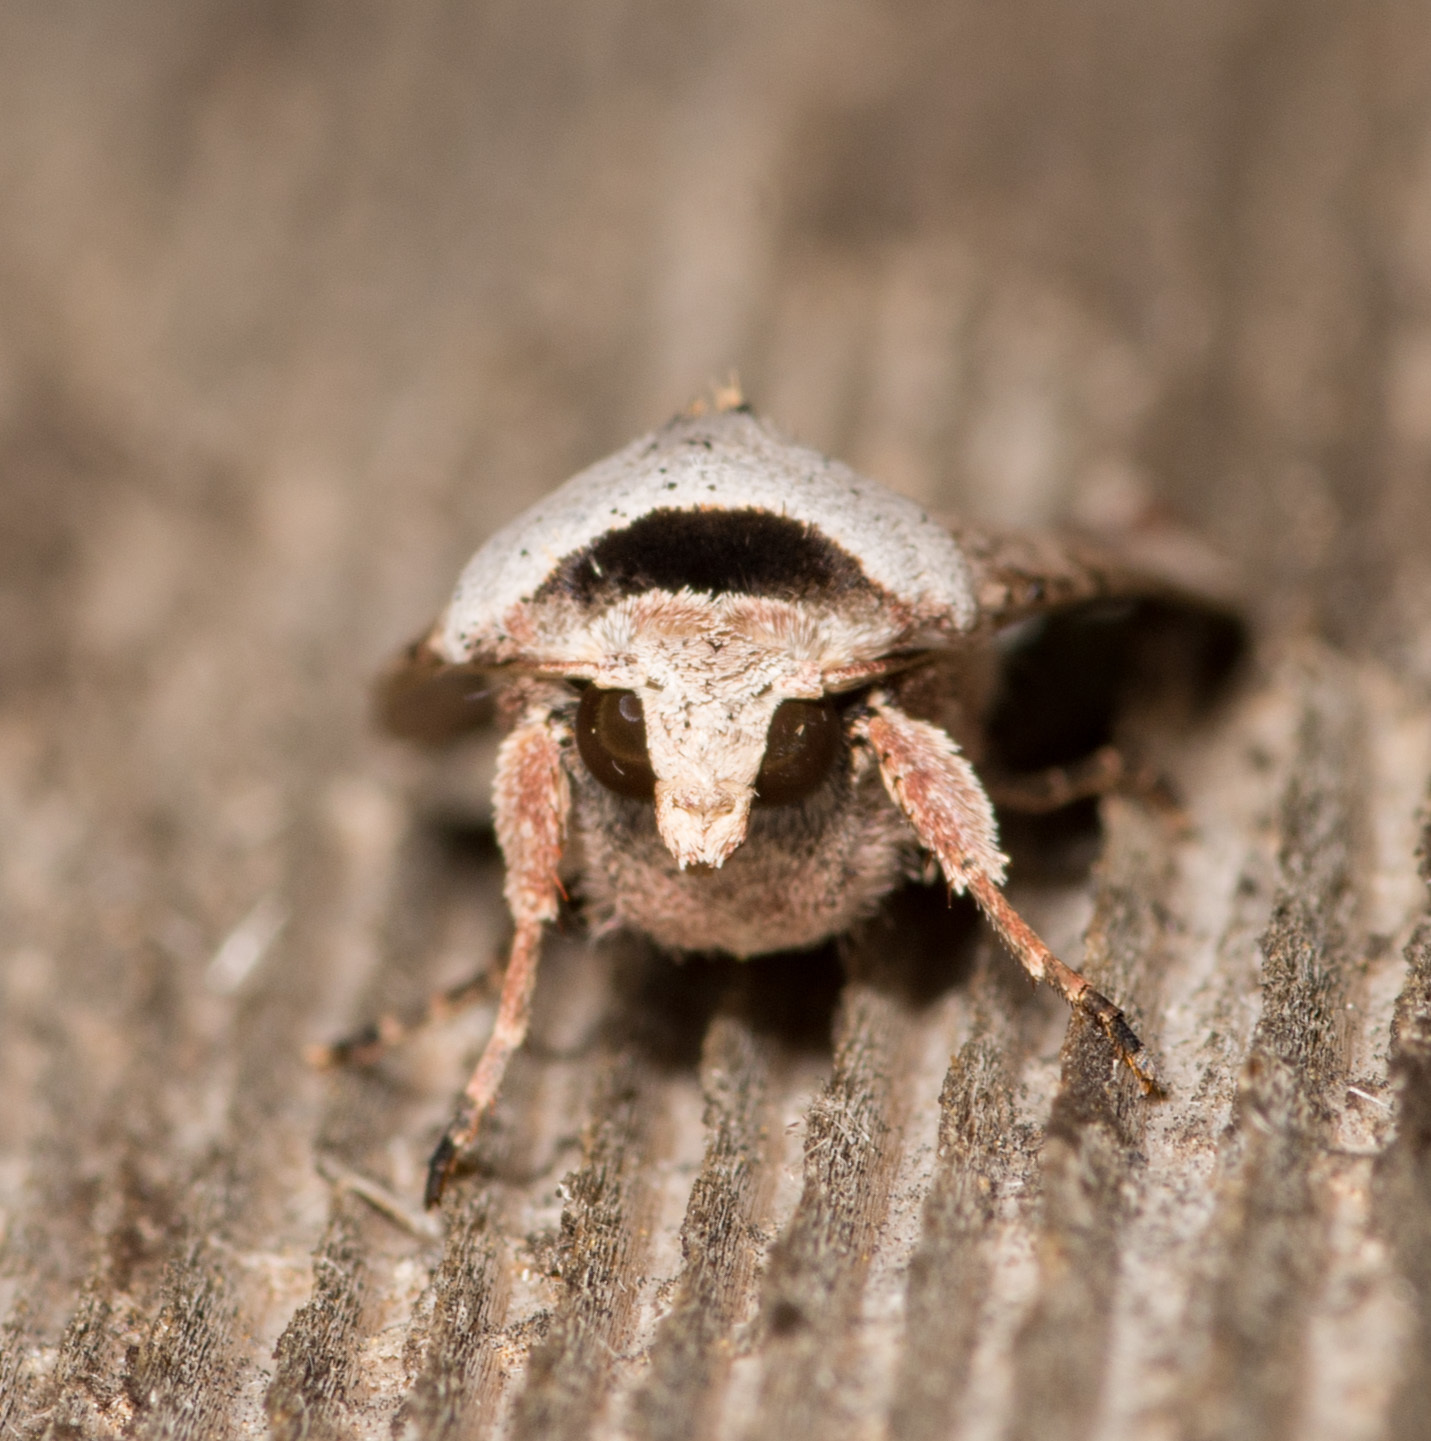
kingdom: Animalia
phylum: Arthropoda
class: Insecta
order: Lepidoptera
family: Noctuidae
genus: Anicla
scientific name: Anicla infecta
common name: Green cutworm
